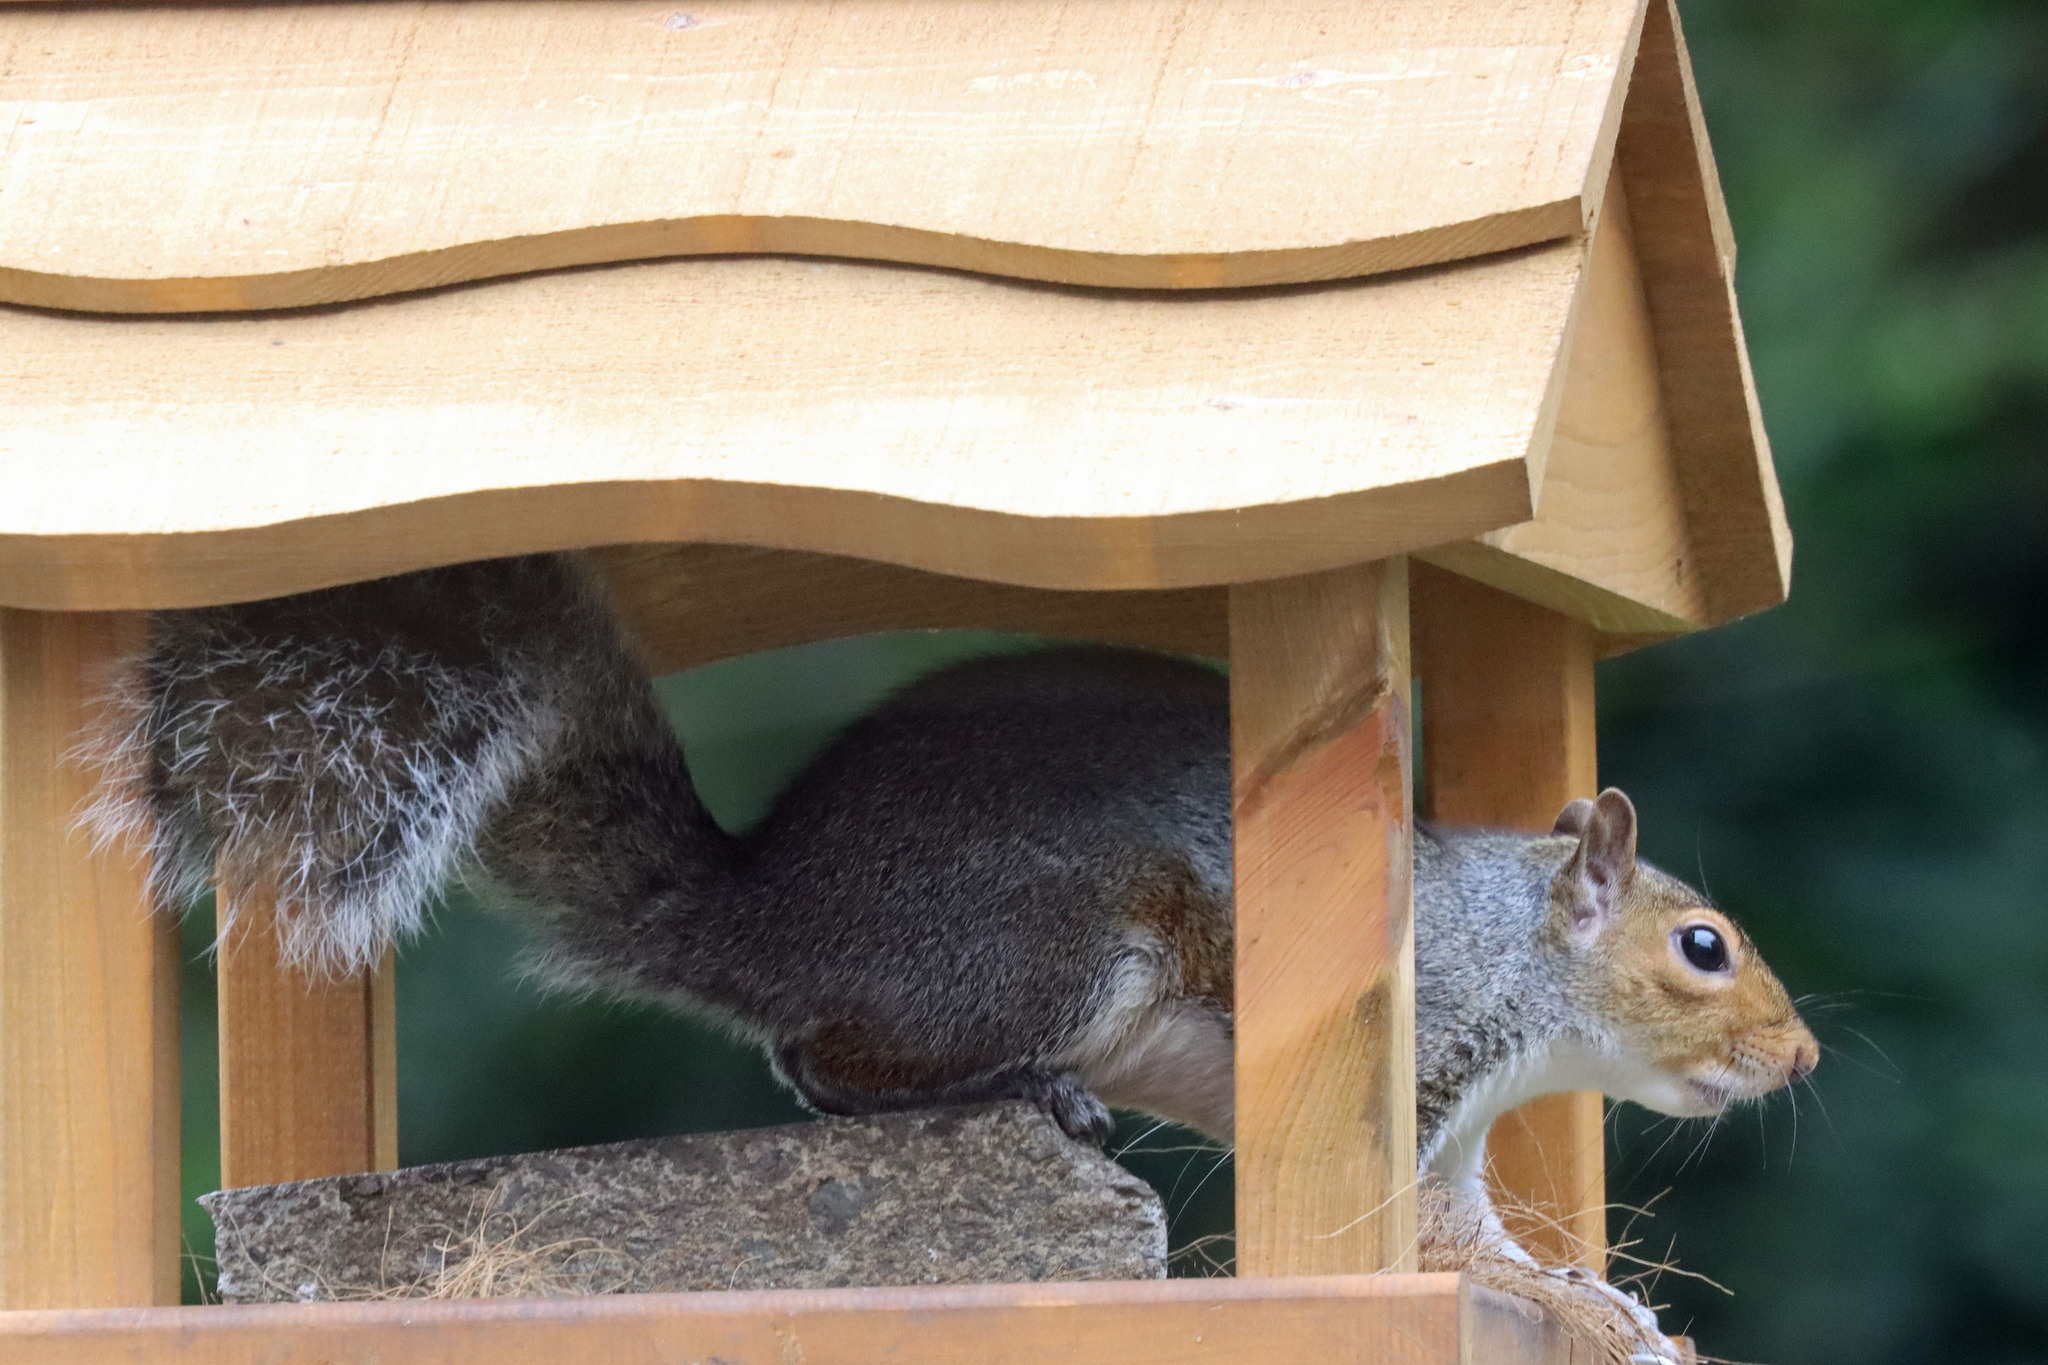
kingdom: Animalia
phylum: Chordata
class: Mammalia
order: Rodentia
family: Sciuridae
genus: Sciurus
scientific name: Sciurus carolinensis
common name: Eastern gray squirrel
